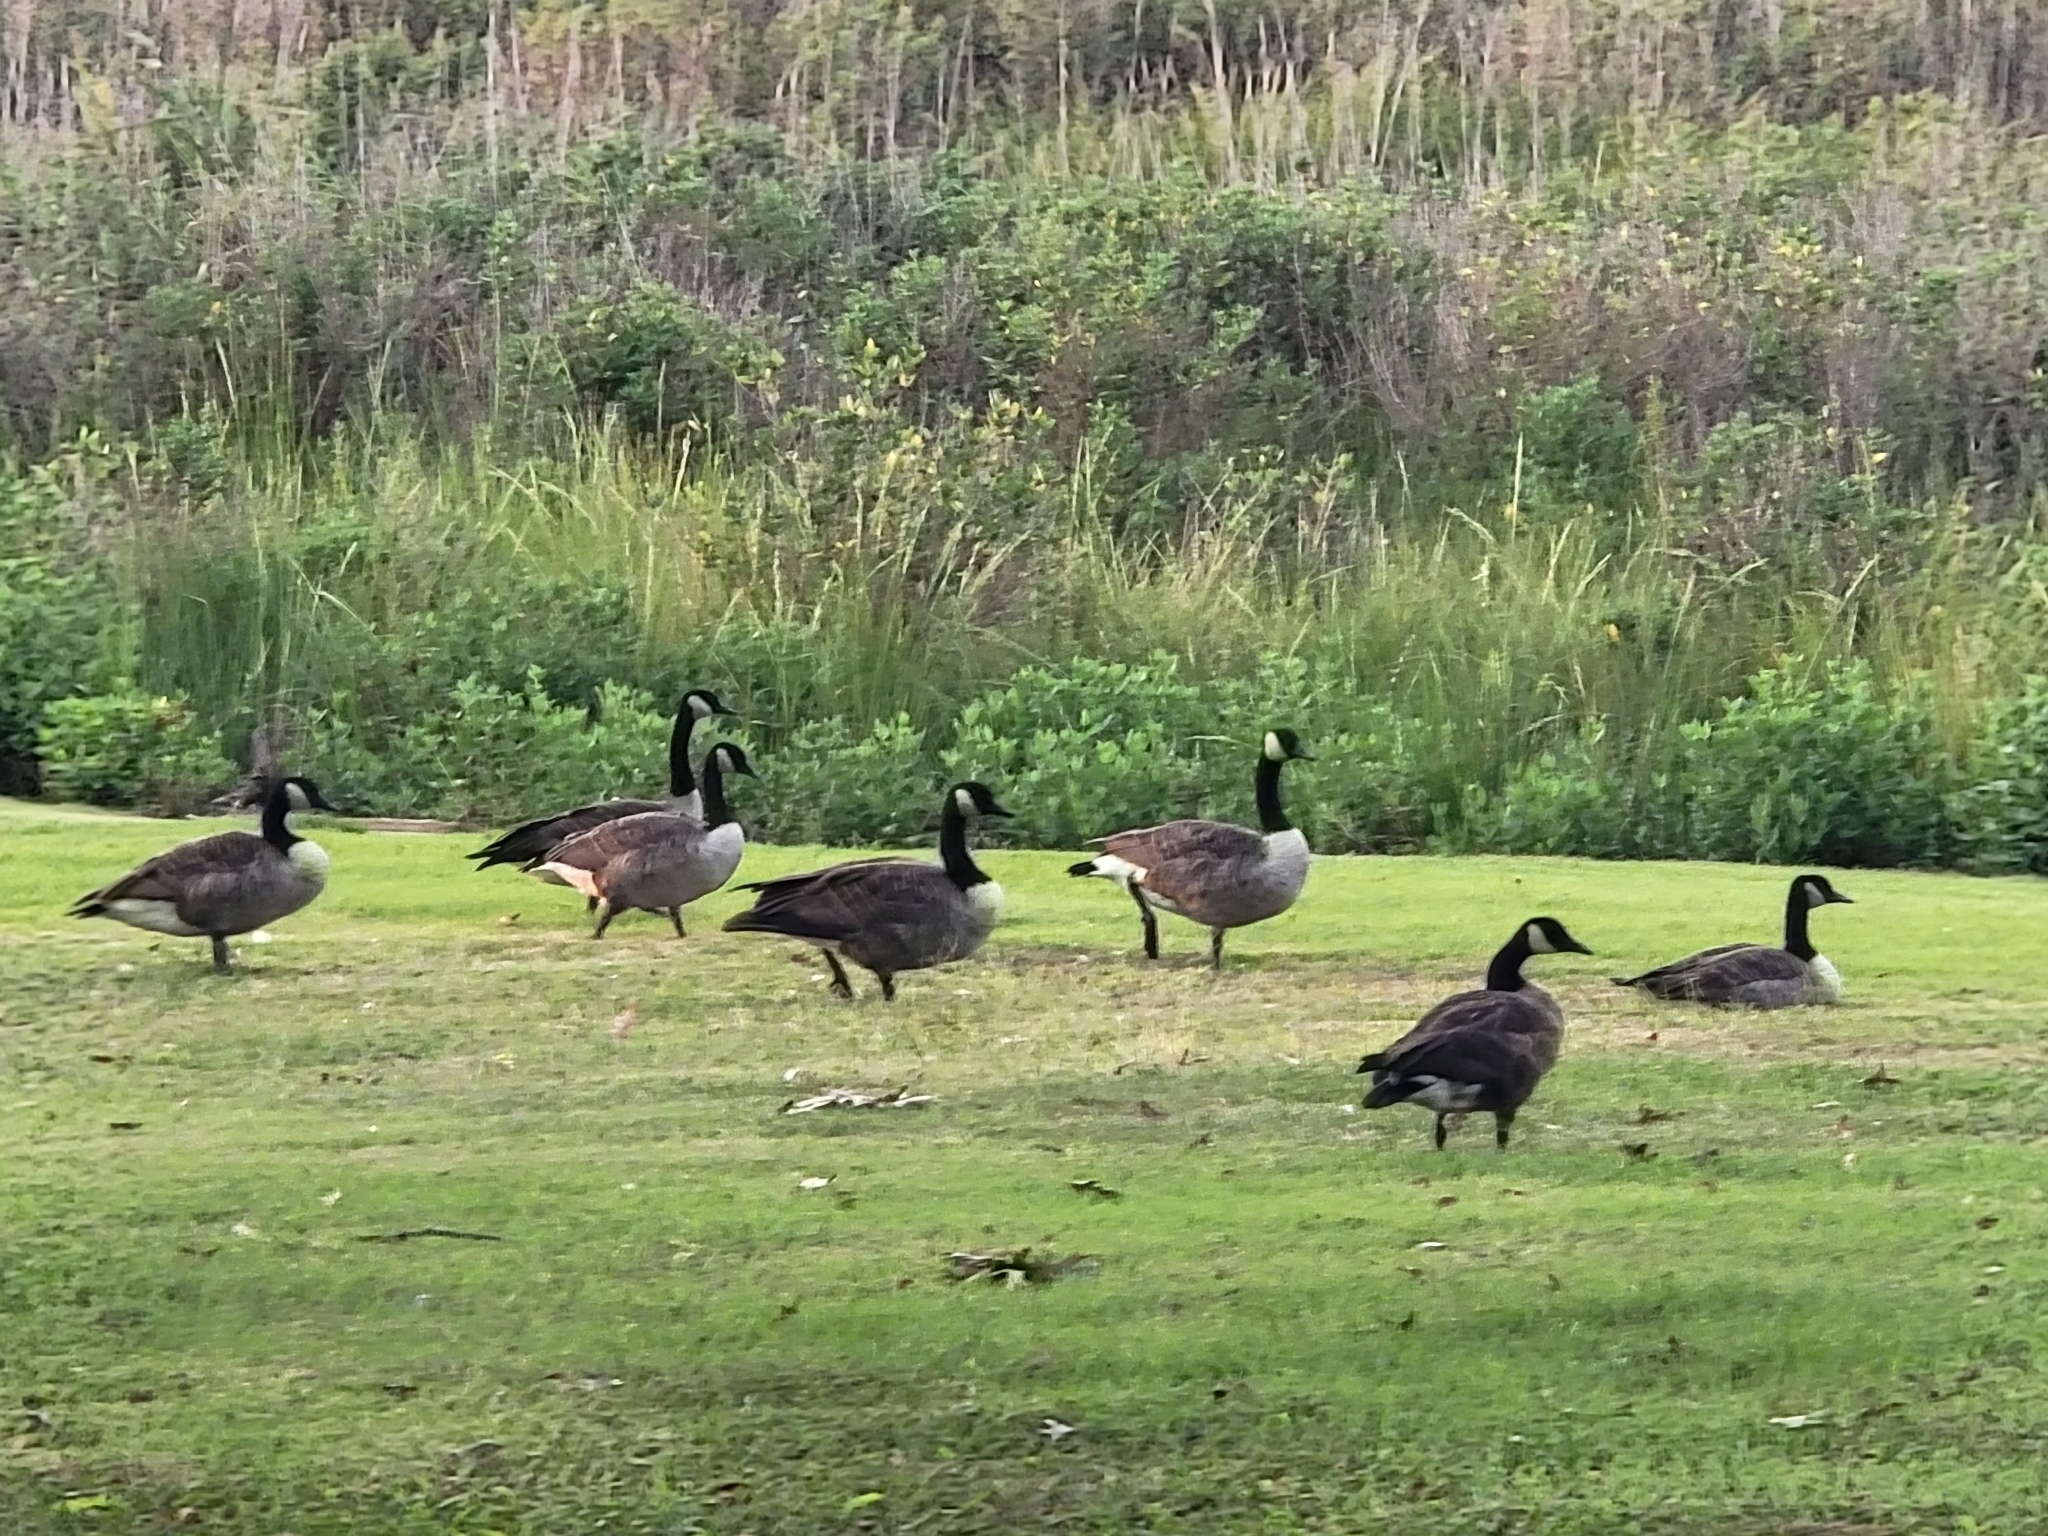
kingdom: Animalia
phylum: Chordata
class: Aves
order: Anseriformes
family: Anatidae
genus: Branta
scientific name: Branta canadensis
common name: Canada goose
